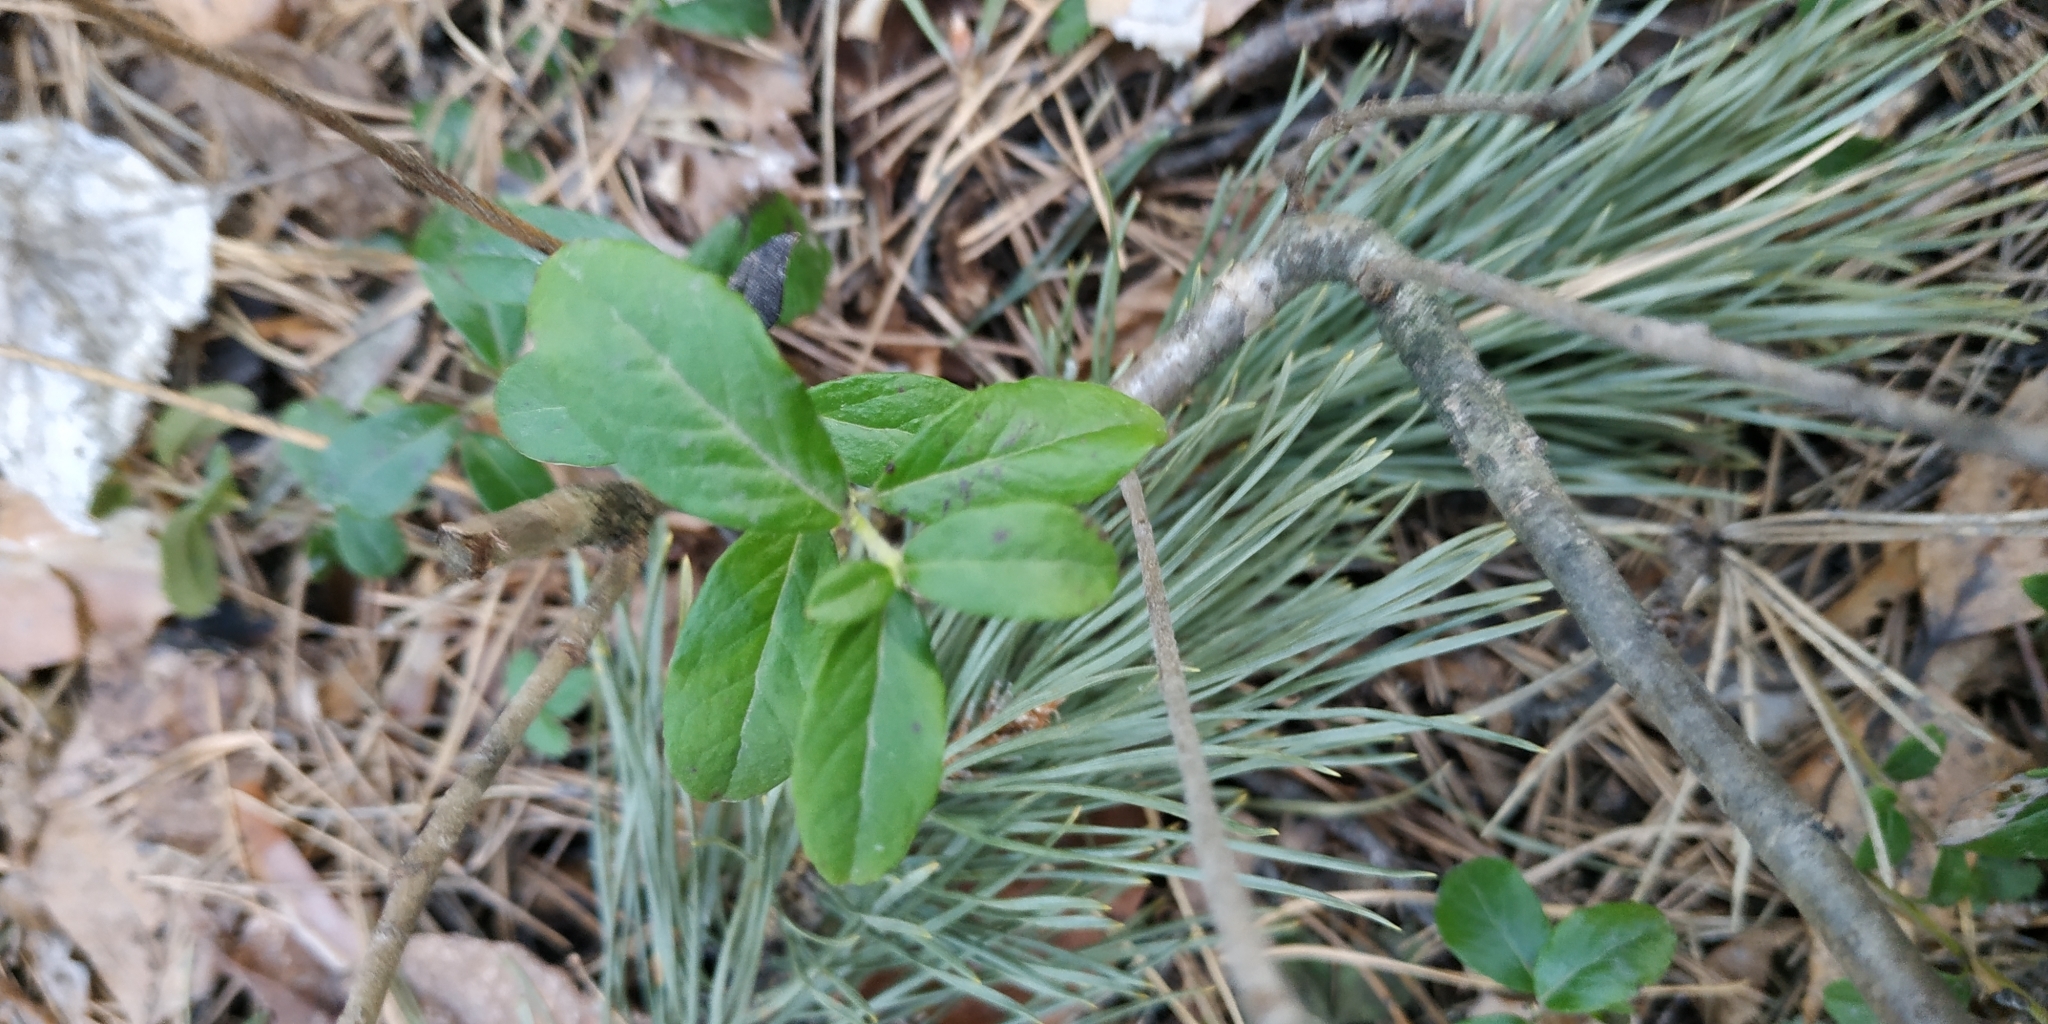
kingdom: Plantae
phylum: Tracheophyta
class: Magnoliopsida
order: Ericales
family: Ericaceae
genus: Vaccinium
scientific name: Vaccinium vitis-idaea
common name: Cowberry
